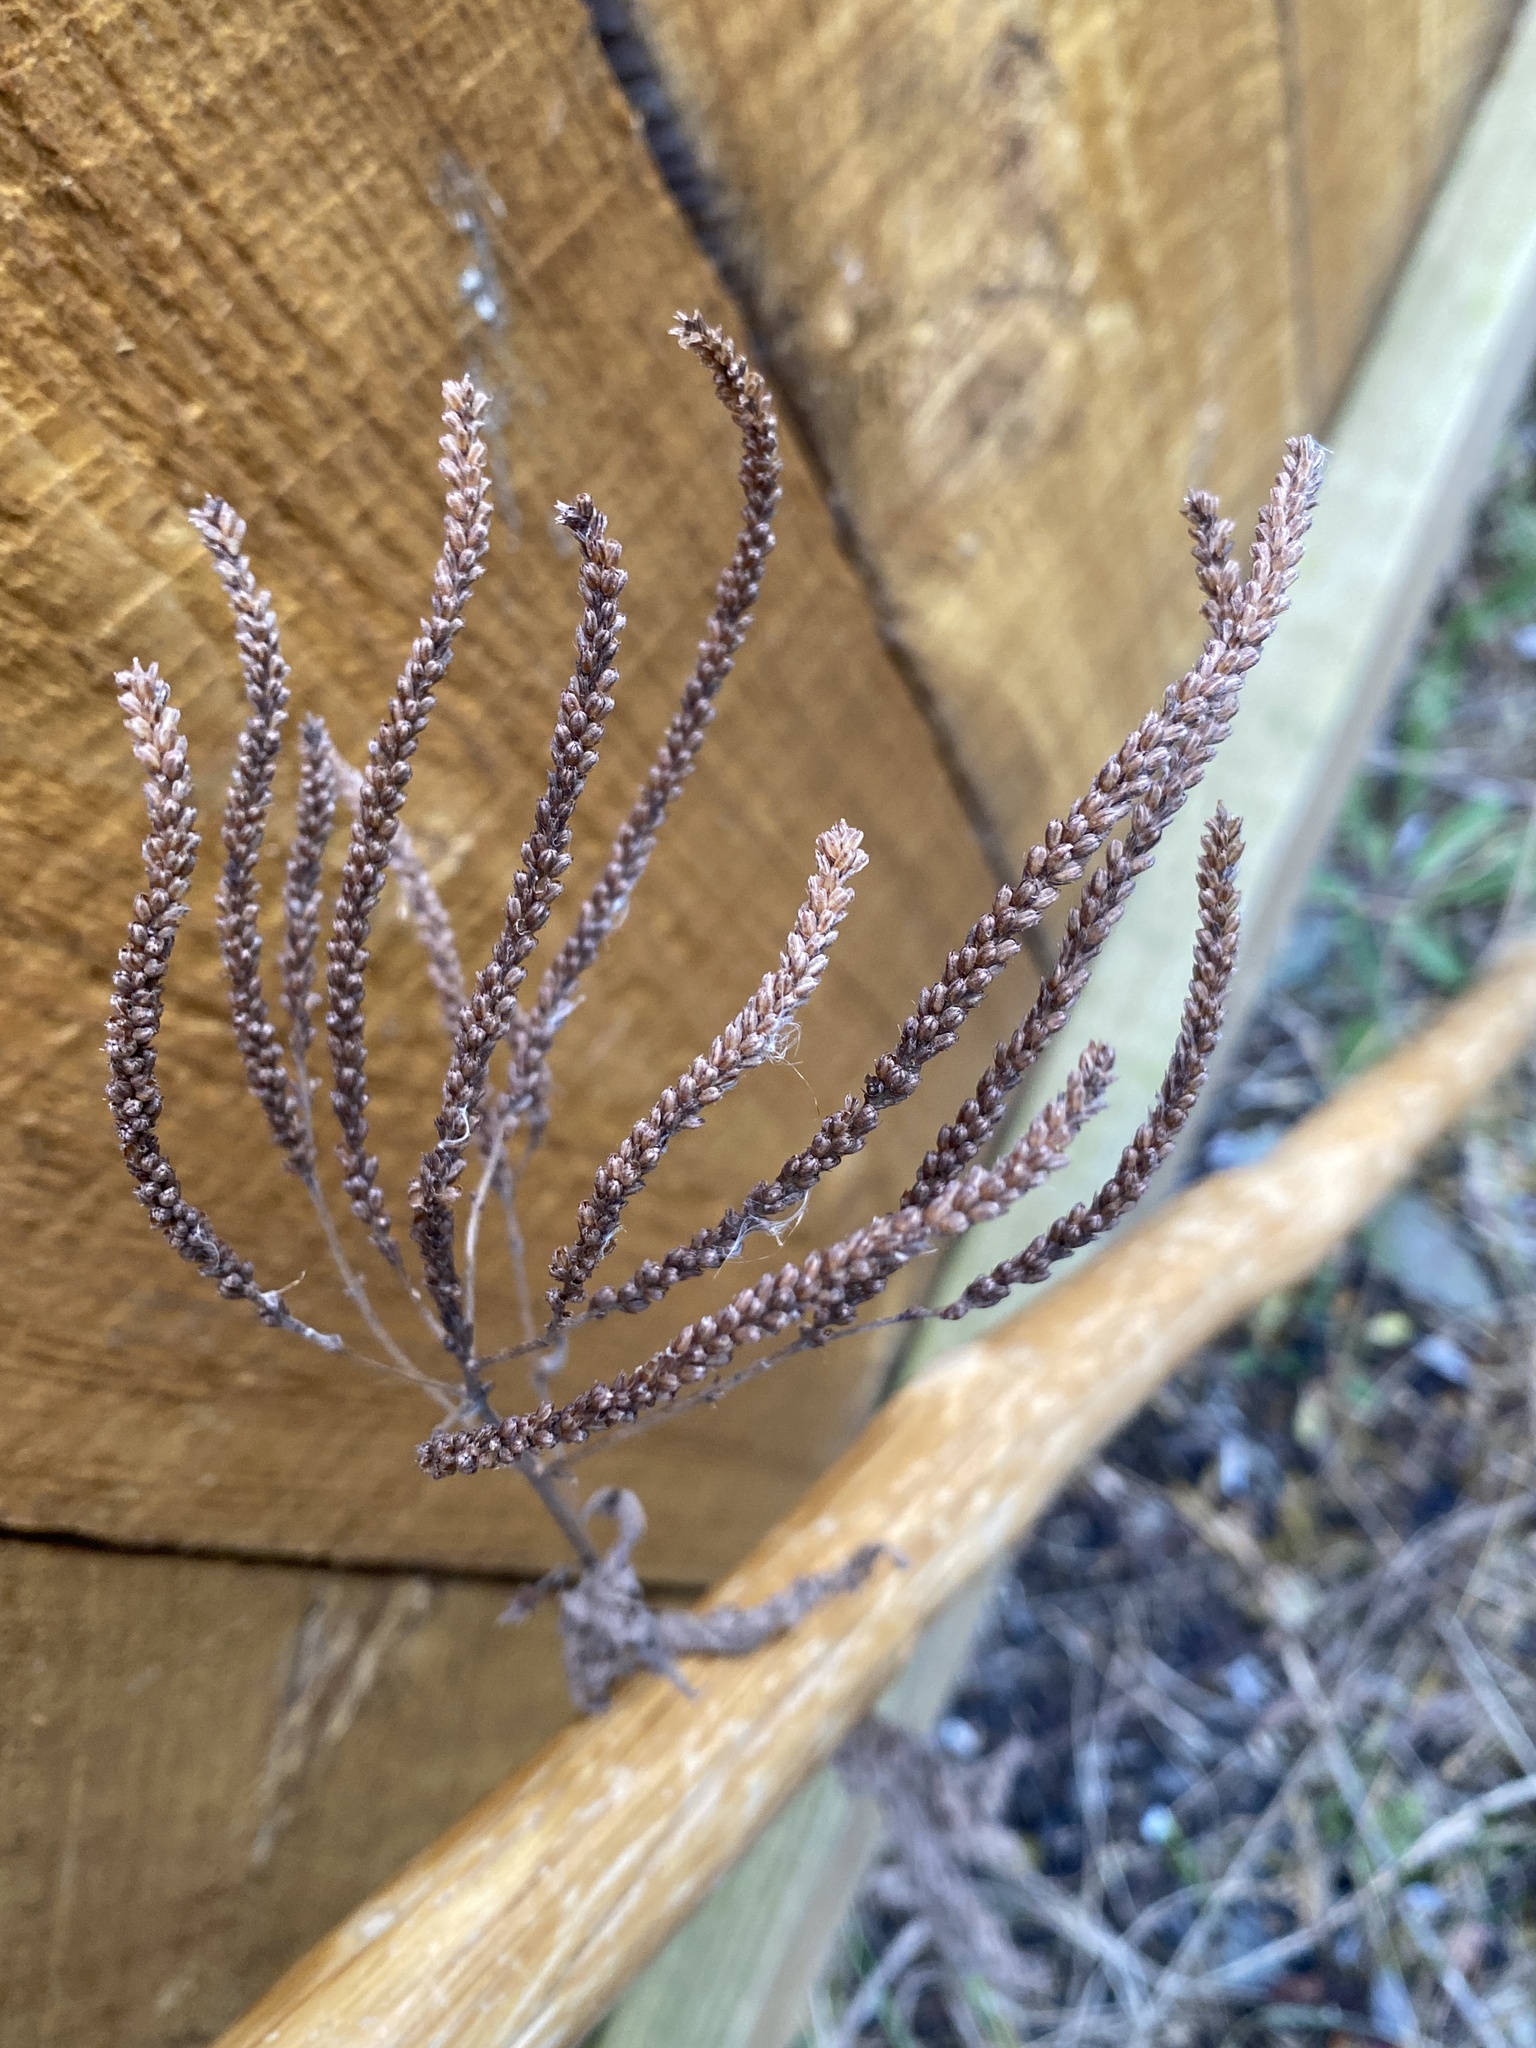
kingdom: Plantae
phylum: Tracheophyta
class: Magnoliopsida
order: Lamiales
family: Verbenaceae
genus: Verbena
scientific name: Verbena hastata
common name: American blue vervain
